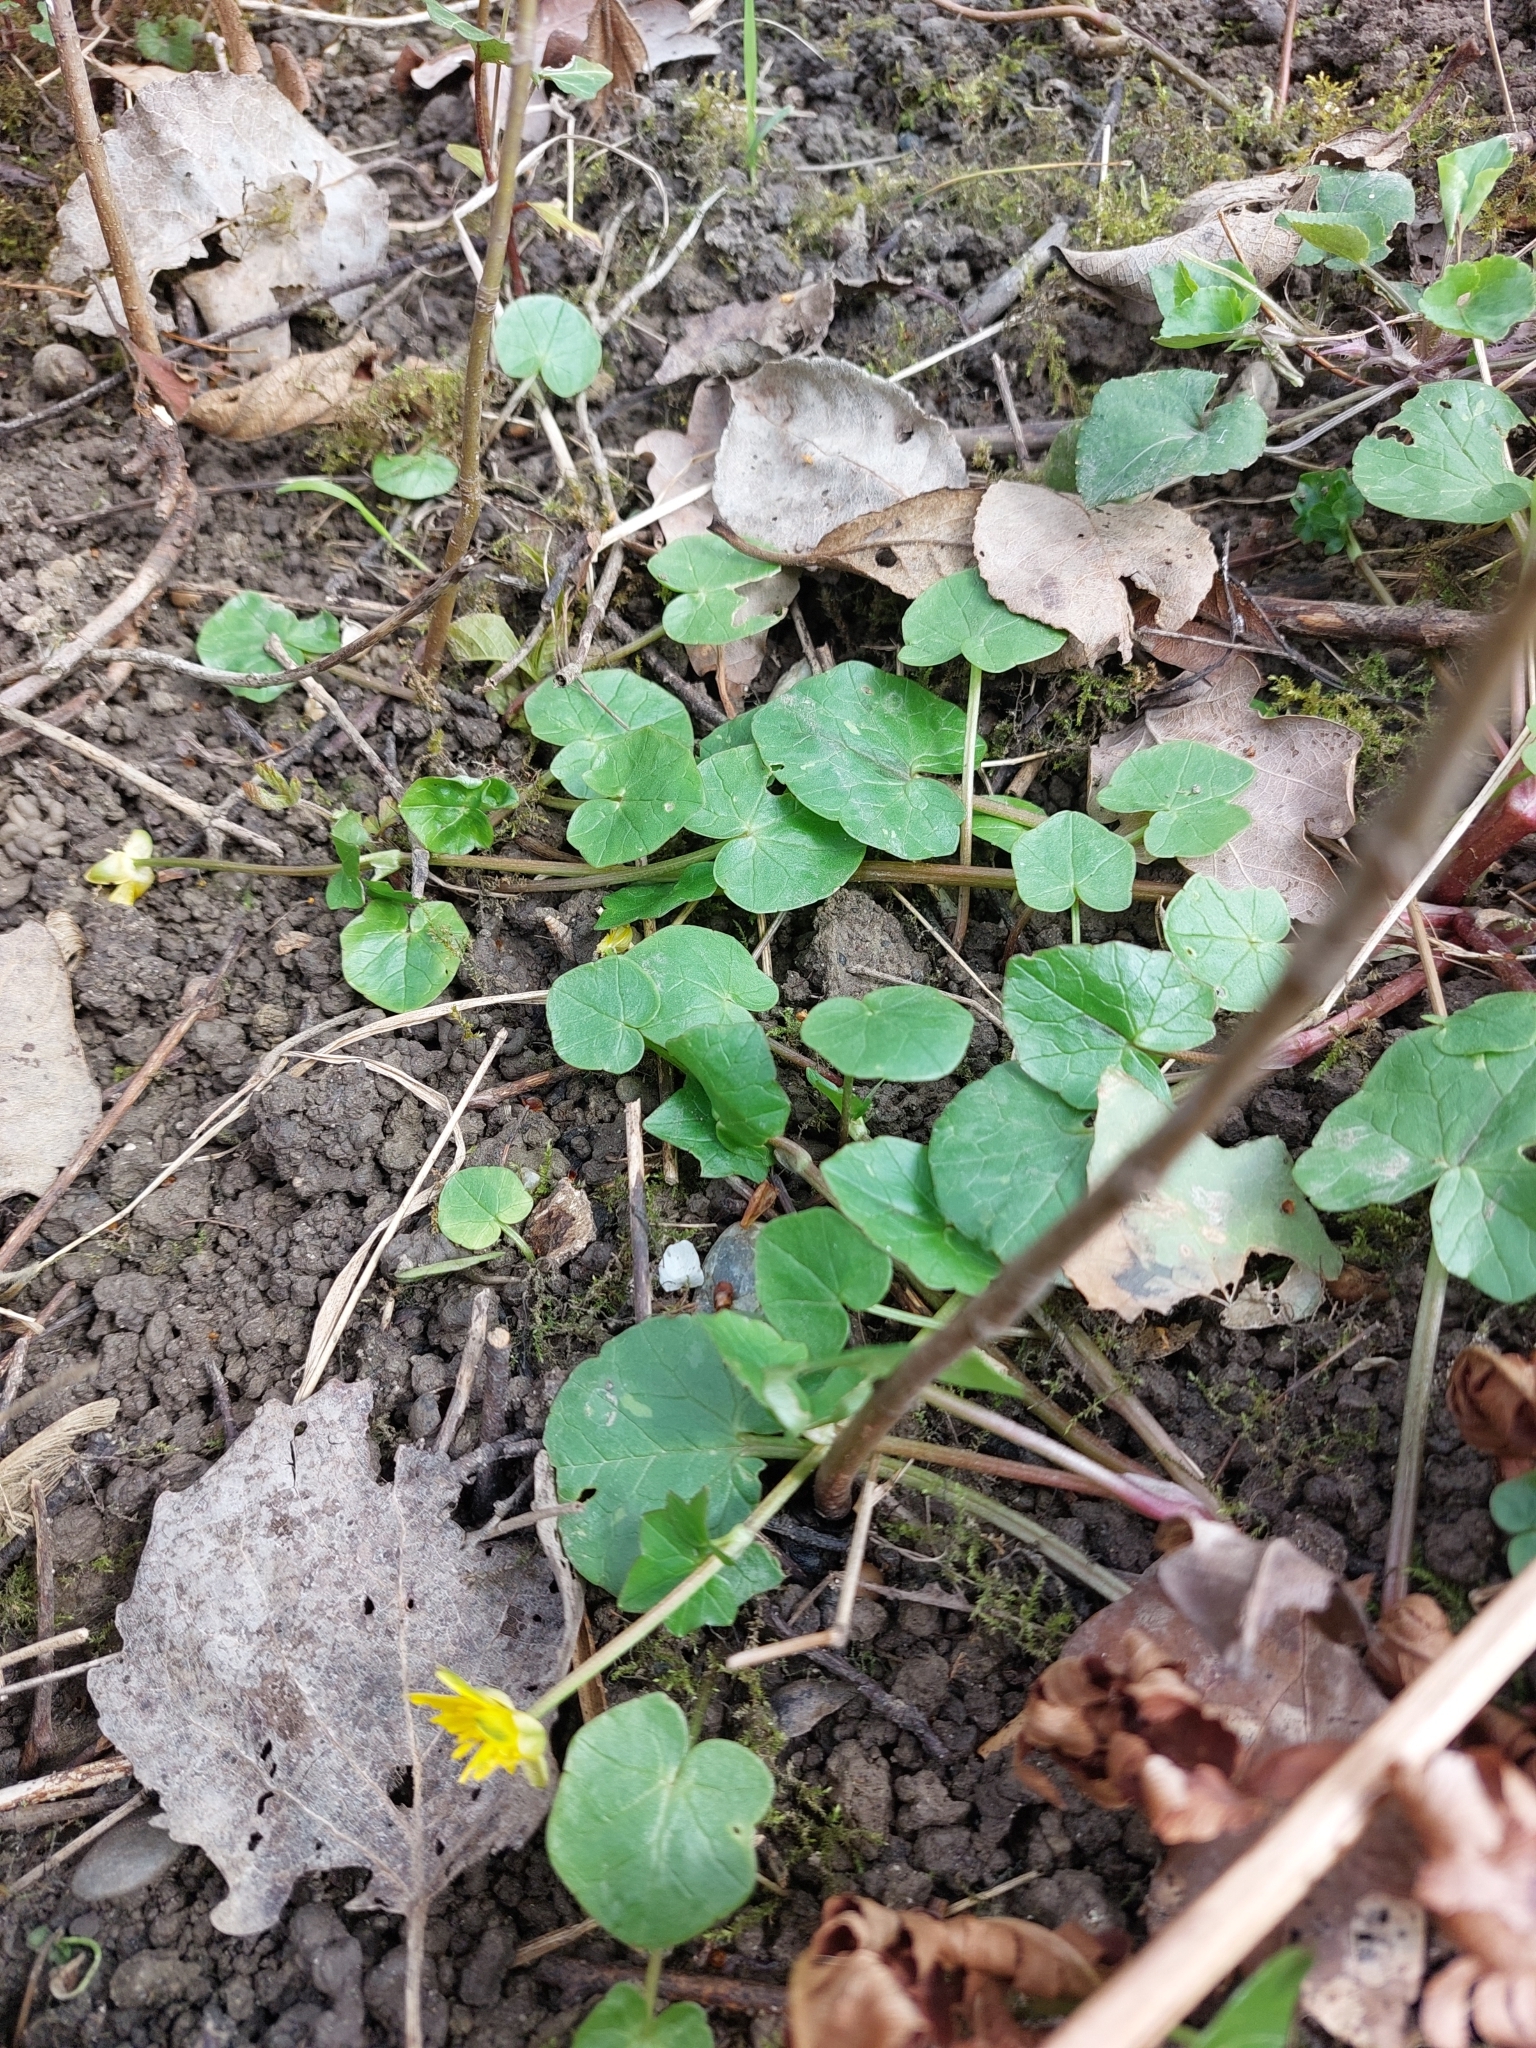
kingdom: Plantae
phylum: Tracheophyta
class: Magnoliopsida
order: Ranunculales
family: Ranunculaceae
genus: Ficaria
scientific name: Ficaria verna
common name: Lesser celandine
